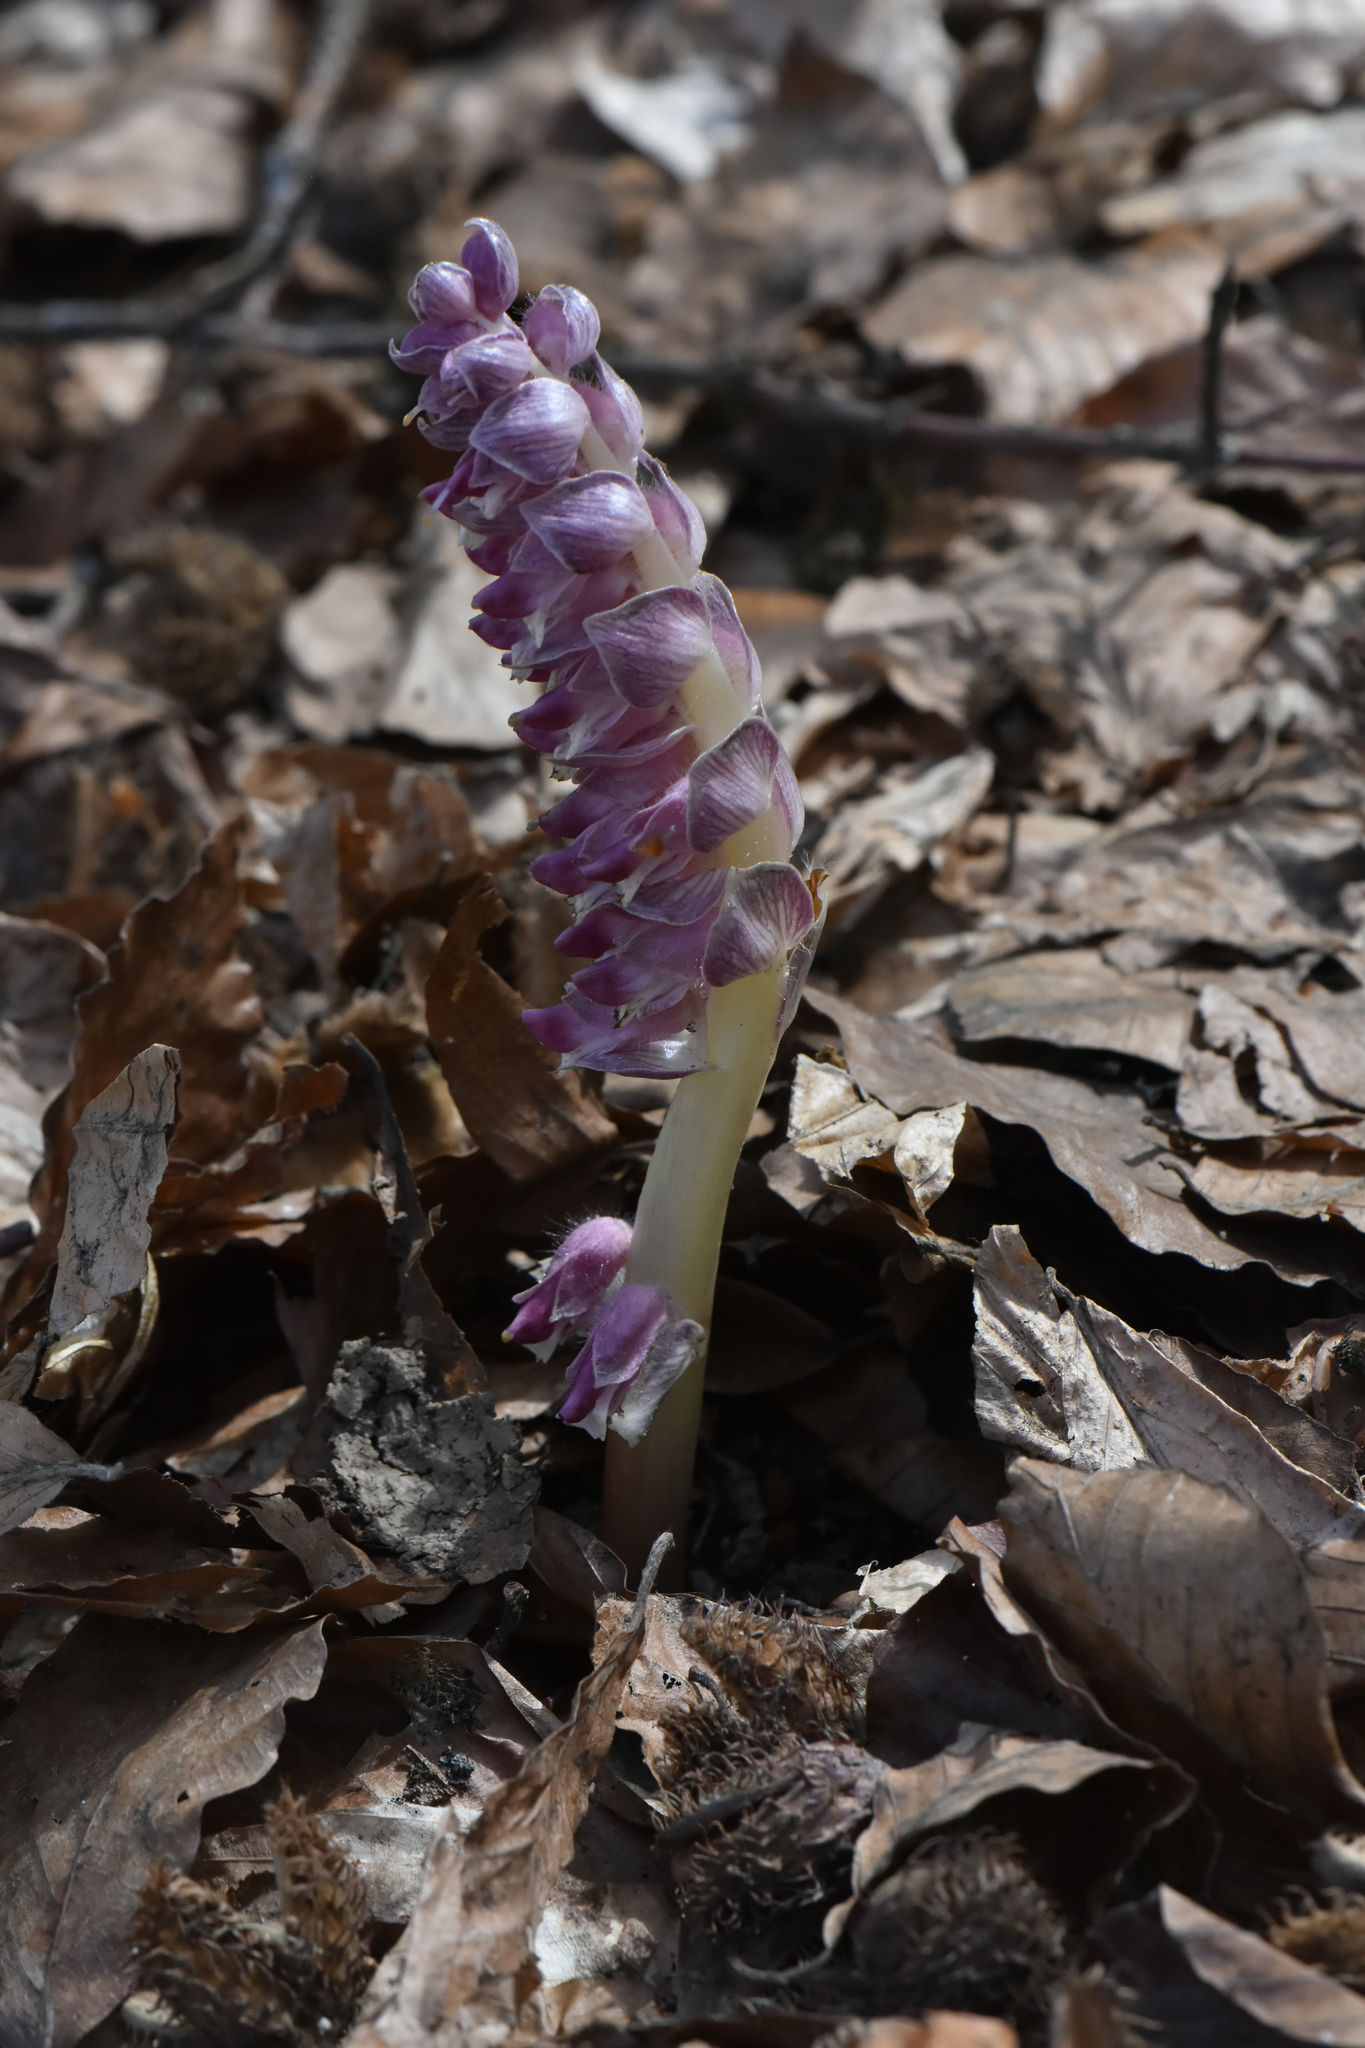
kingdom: Plantae
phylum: Tracheophyta
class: Magnoliopsida
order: Lamiales
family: Orobanchaceae
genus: Lathraea
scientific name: Lathraea squamaria
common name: Toothwort
